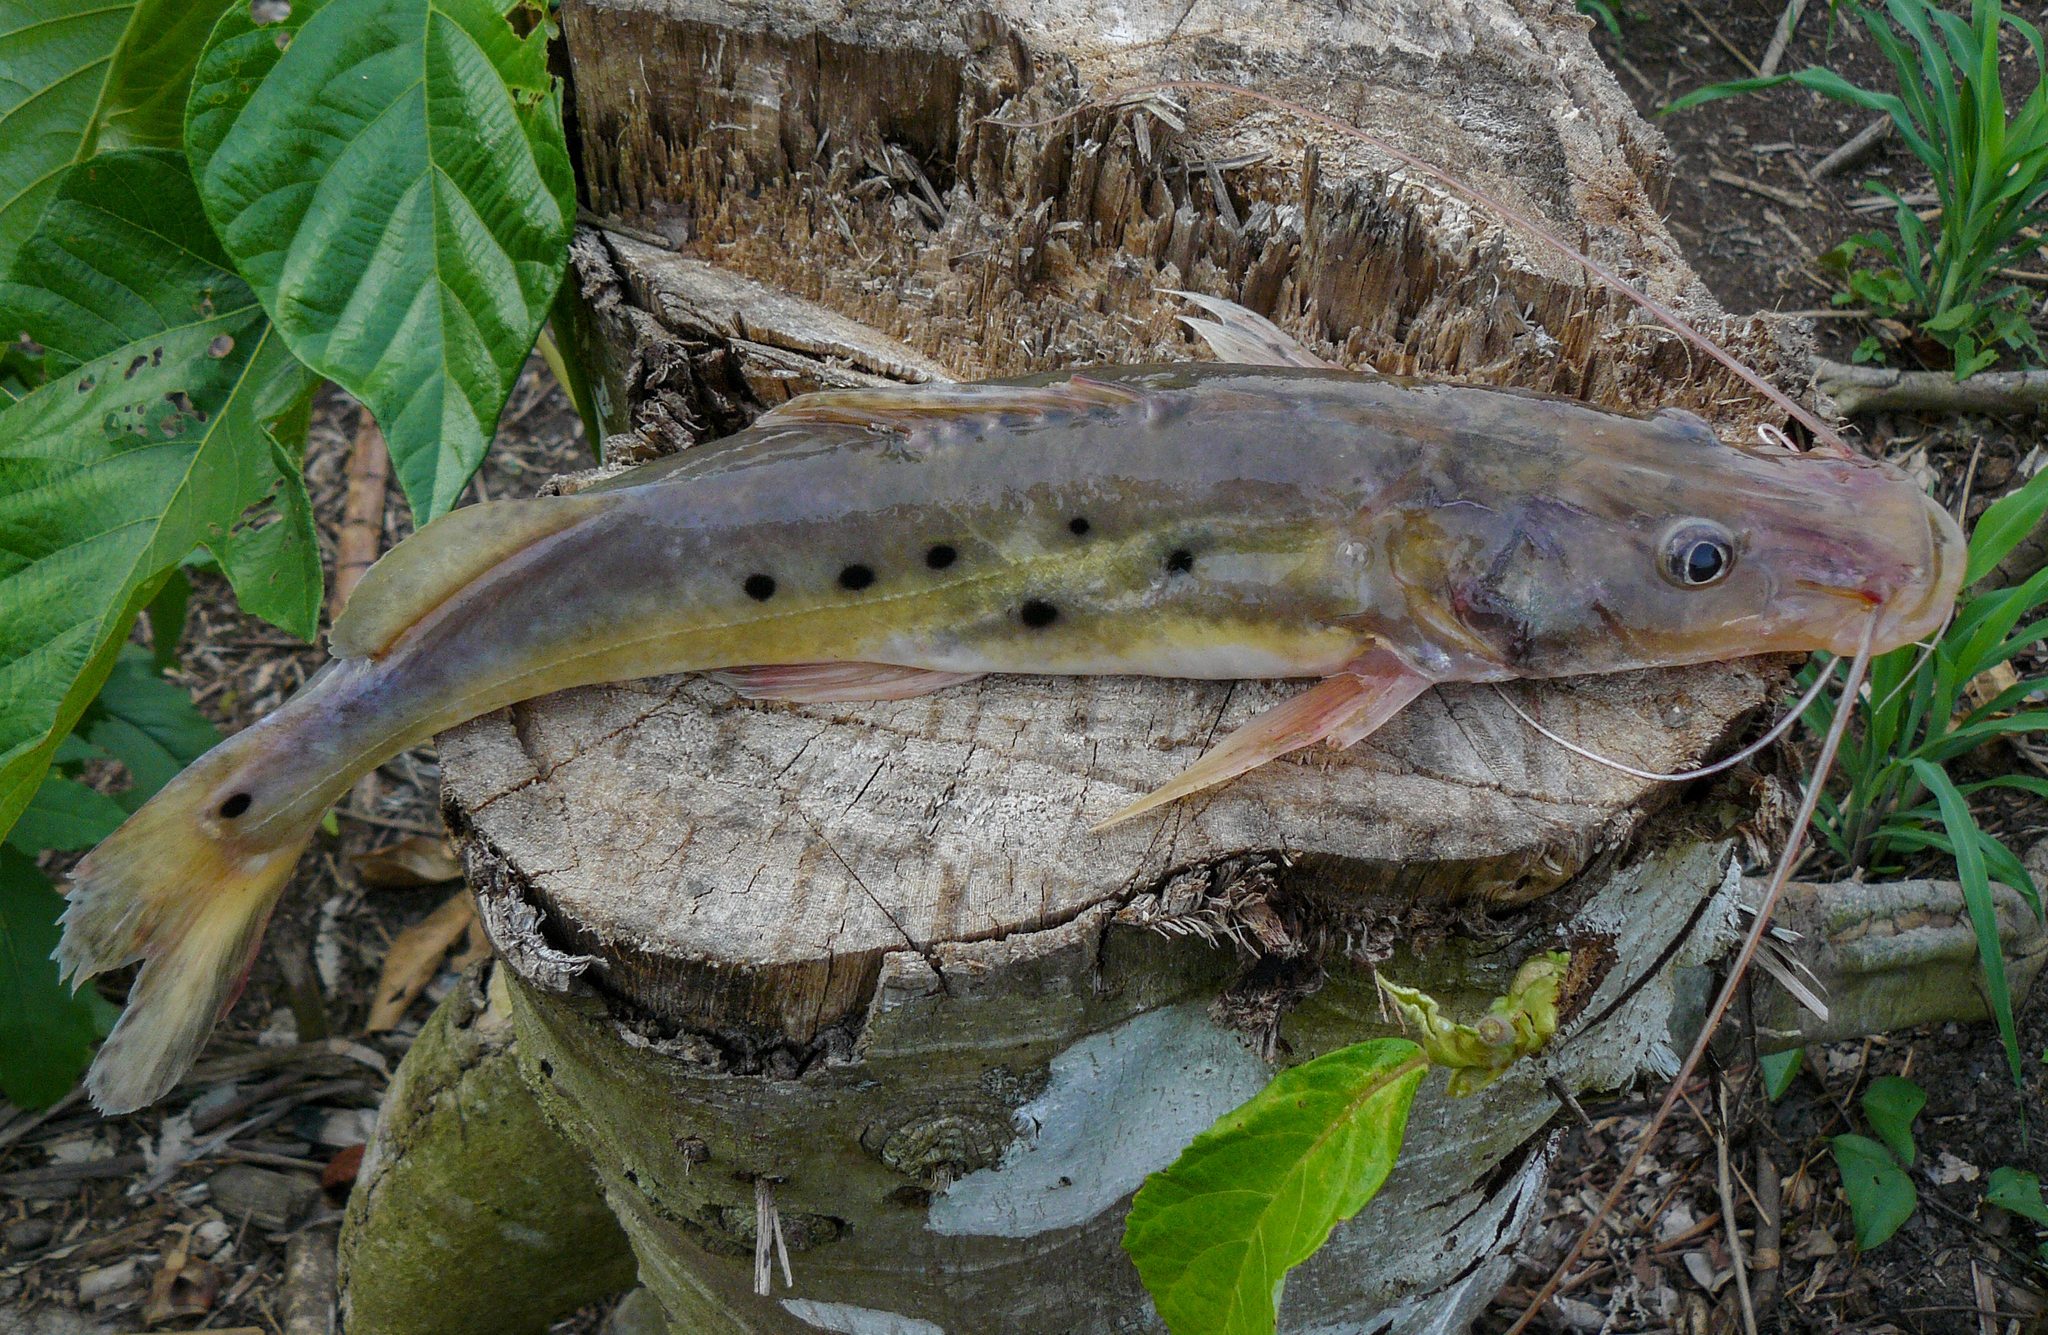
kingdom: Animalia
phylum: Chordata
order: Siluriformes
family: Pimelodidae
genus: Hemisorubim
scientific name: Hemisorubim platyrhynchos
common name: Porthole shovelnose catfish
